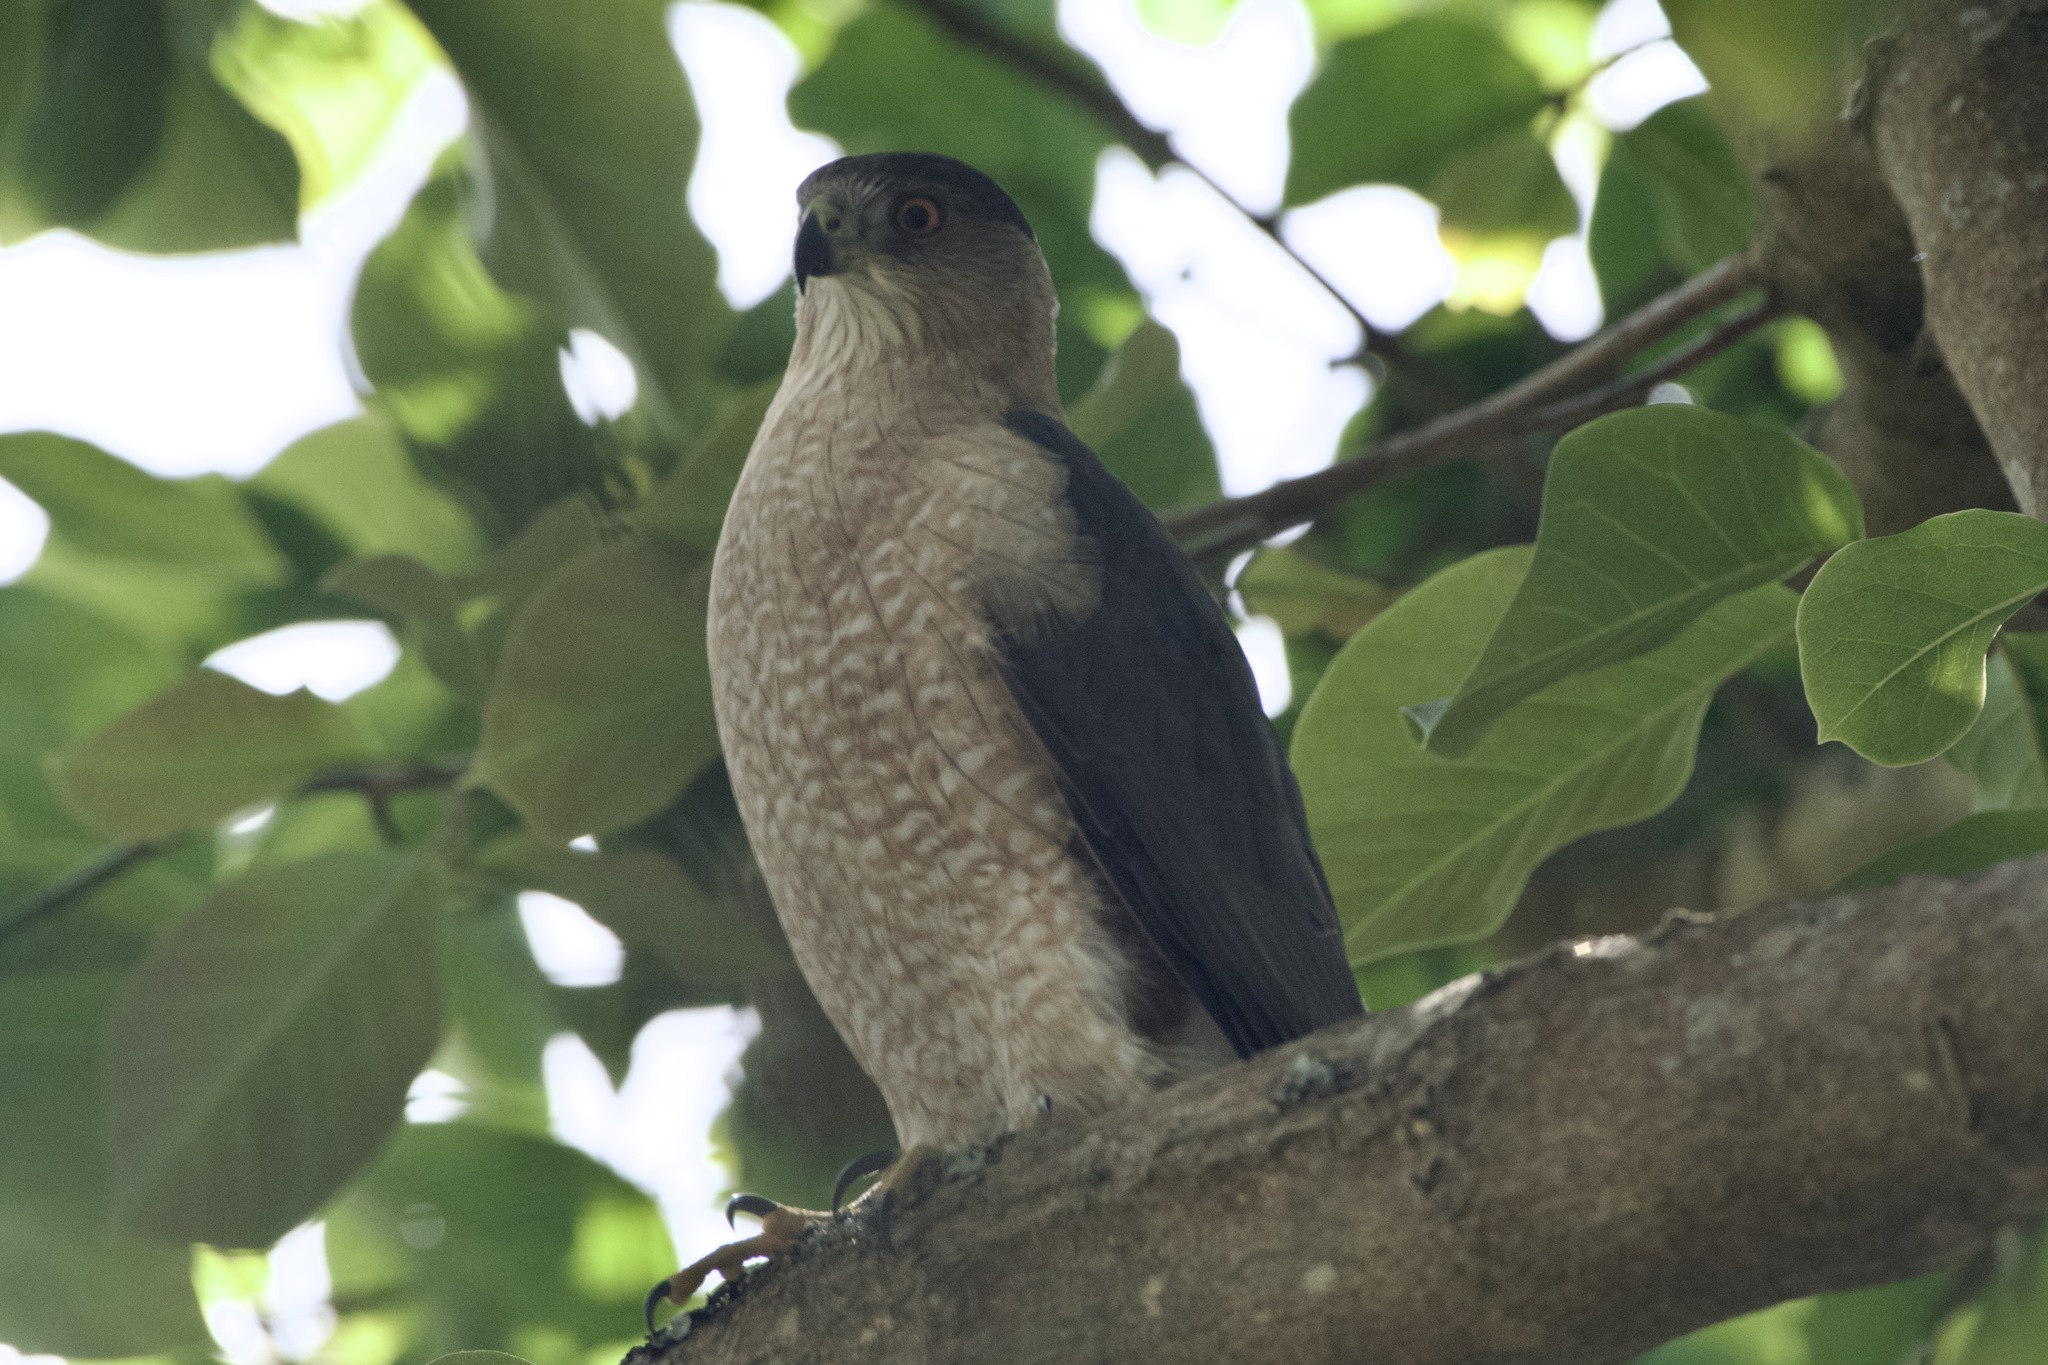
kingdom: Animalia
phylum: Chordata
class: Aves
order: Accipitriformes
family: Accipitridae
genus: Accipiter
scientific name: Accipiter cooperii
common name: Cooper's hawk
